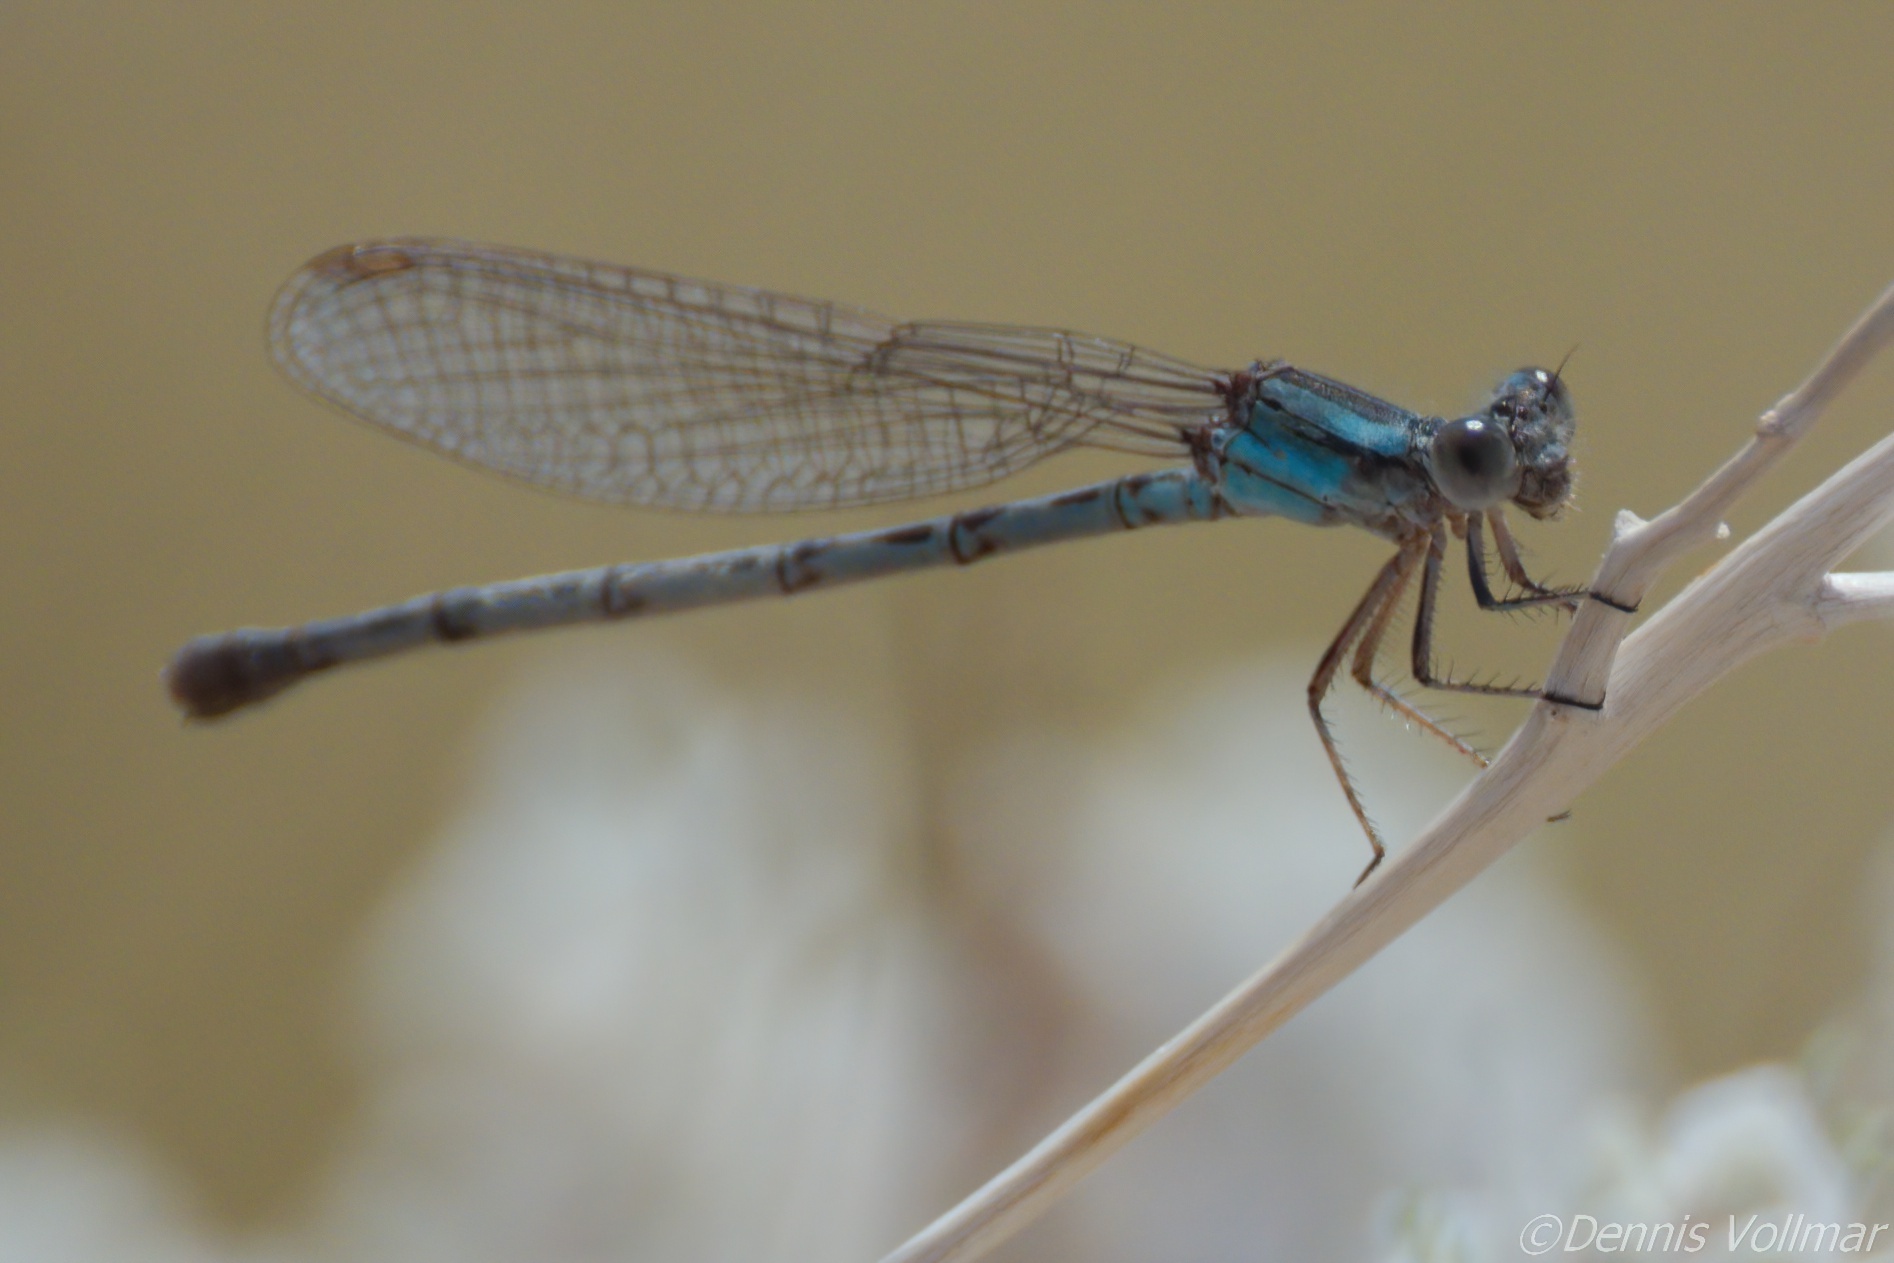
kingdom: Animalia
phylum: Arthropoda
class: Insecta
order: Odonata
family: Coenagrionidae
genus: Argia
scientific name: Argia alberta
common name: Paiute dancer
